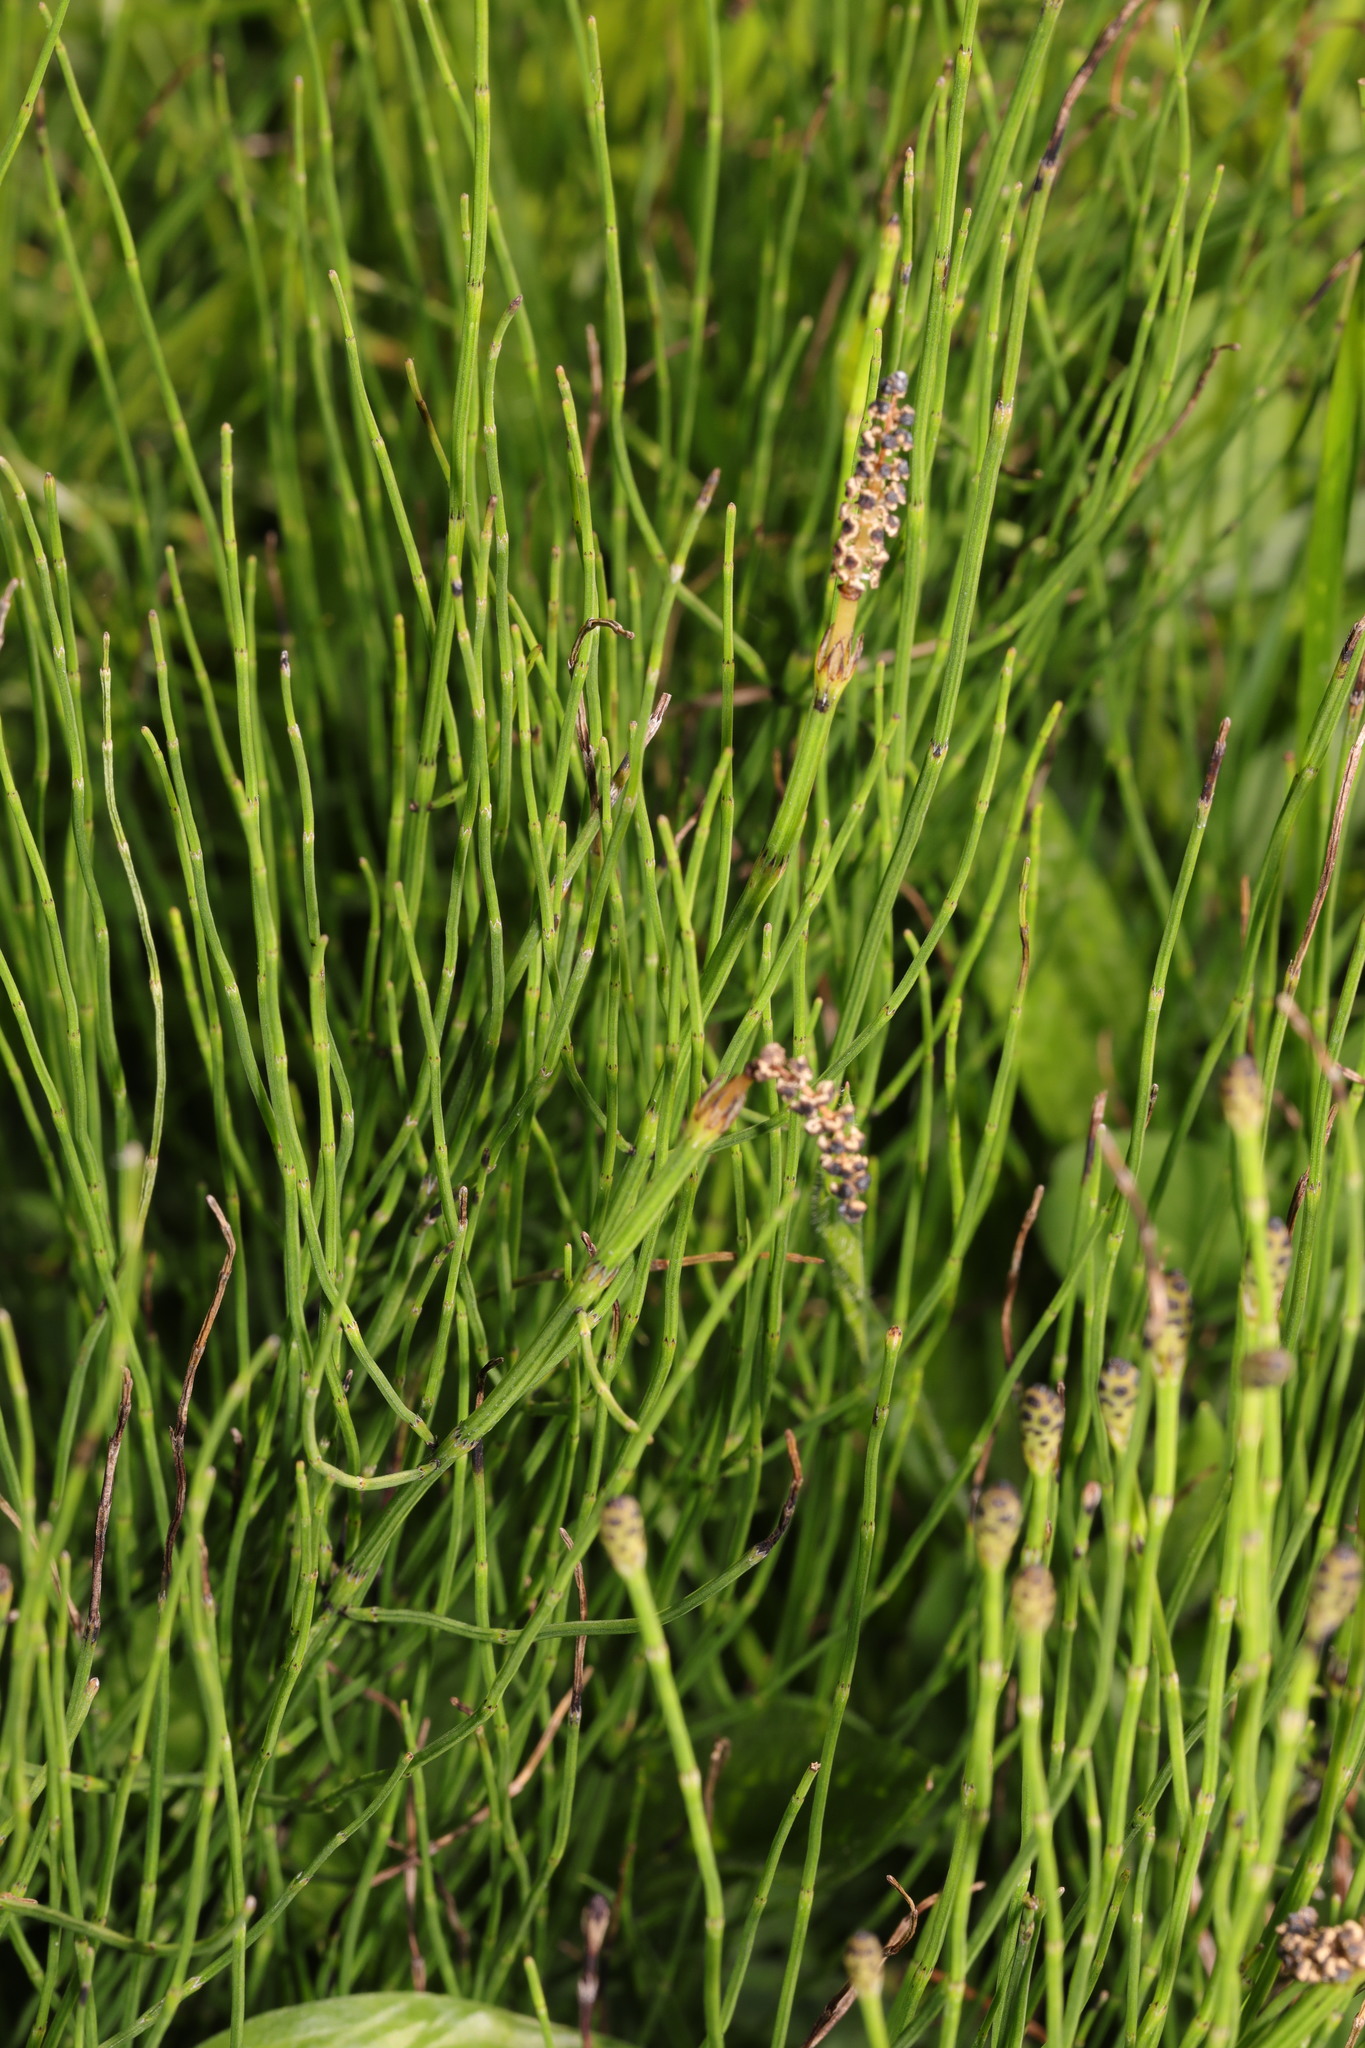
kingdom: Plantae
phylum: Tracheophyta
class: Polypodiopsida
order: Equisetales
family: Equisetaceae
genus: Equisetum
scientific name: Equisetum arvense
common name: Field horsetail
